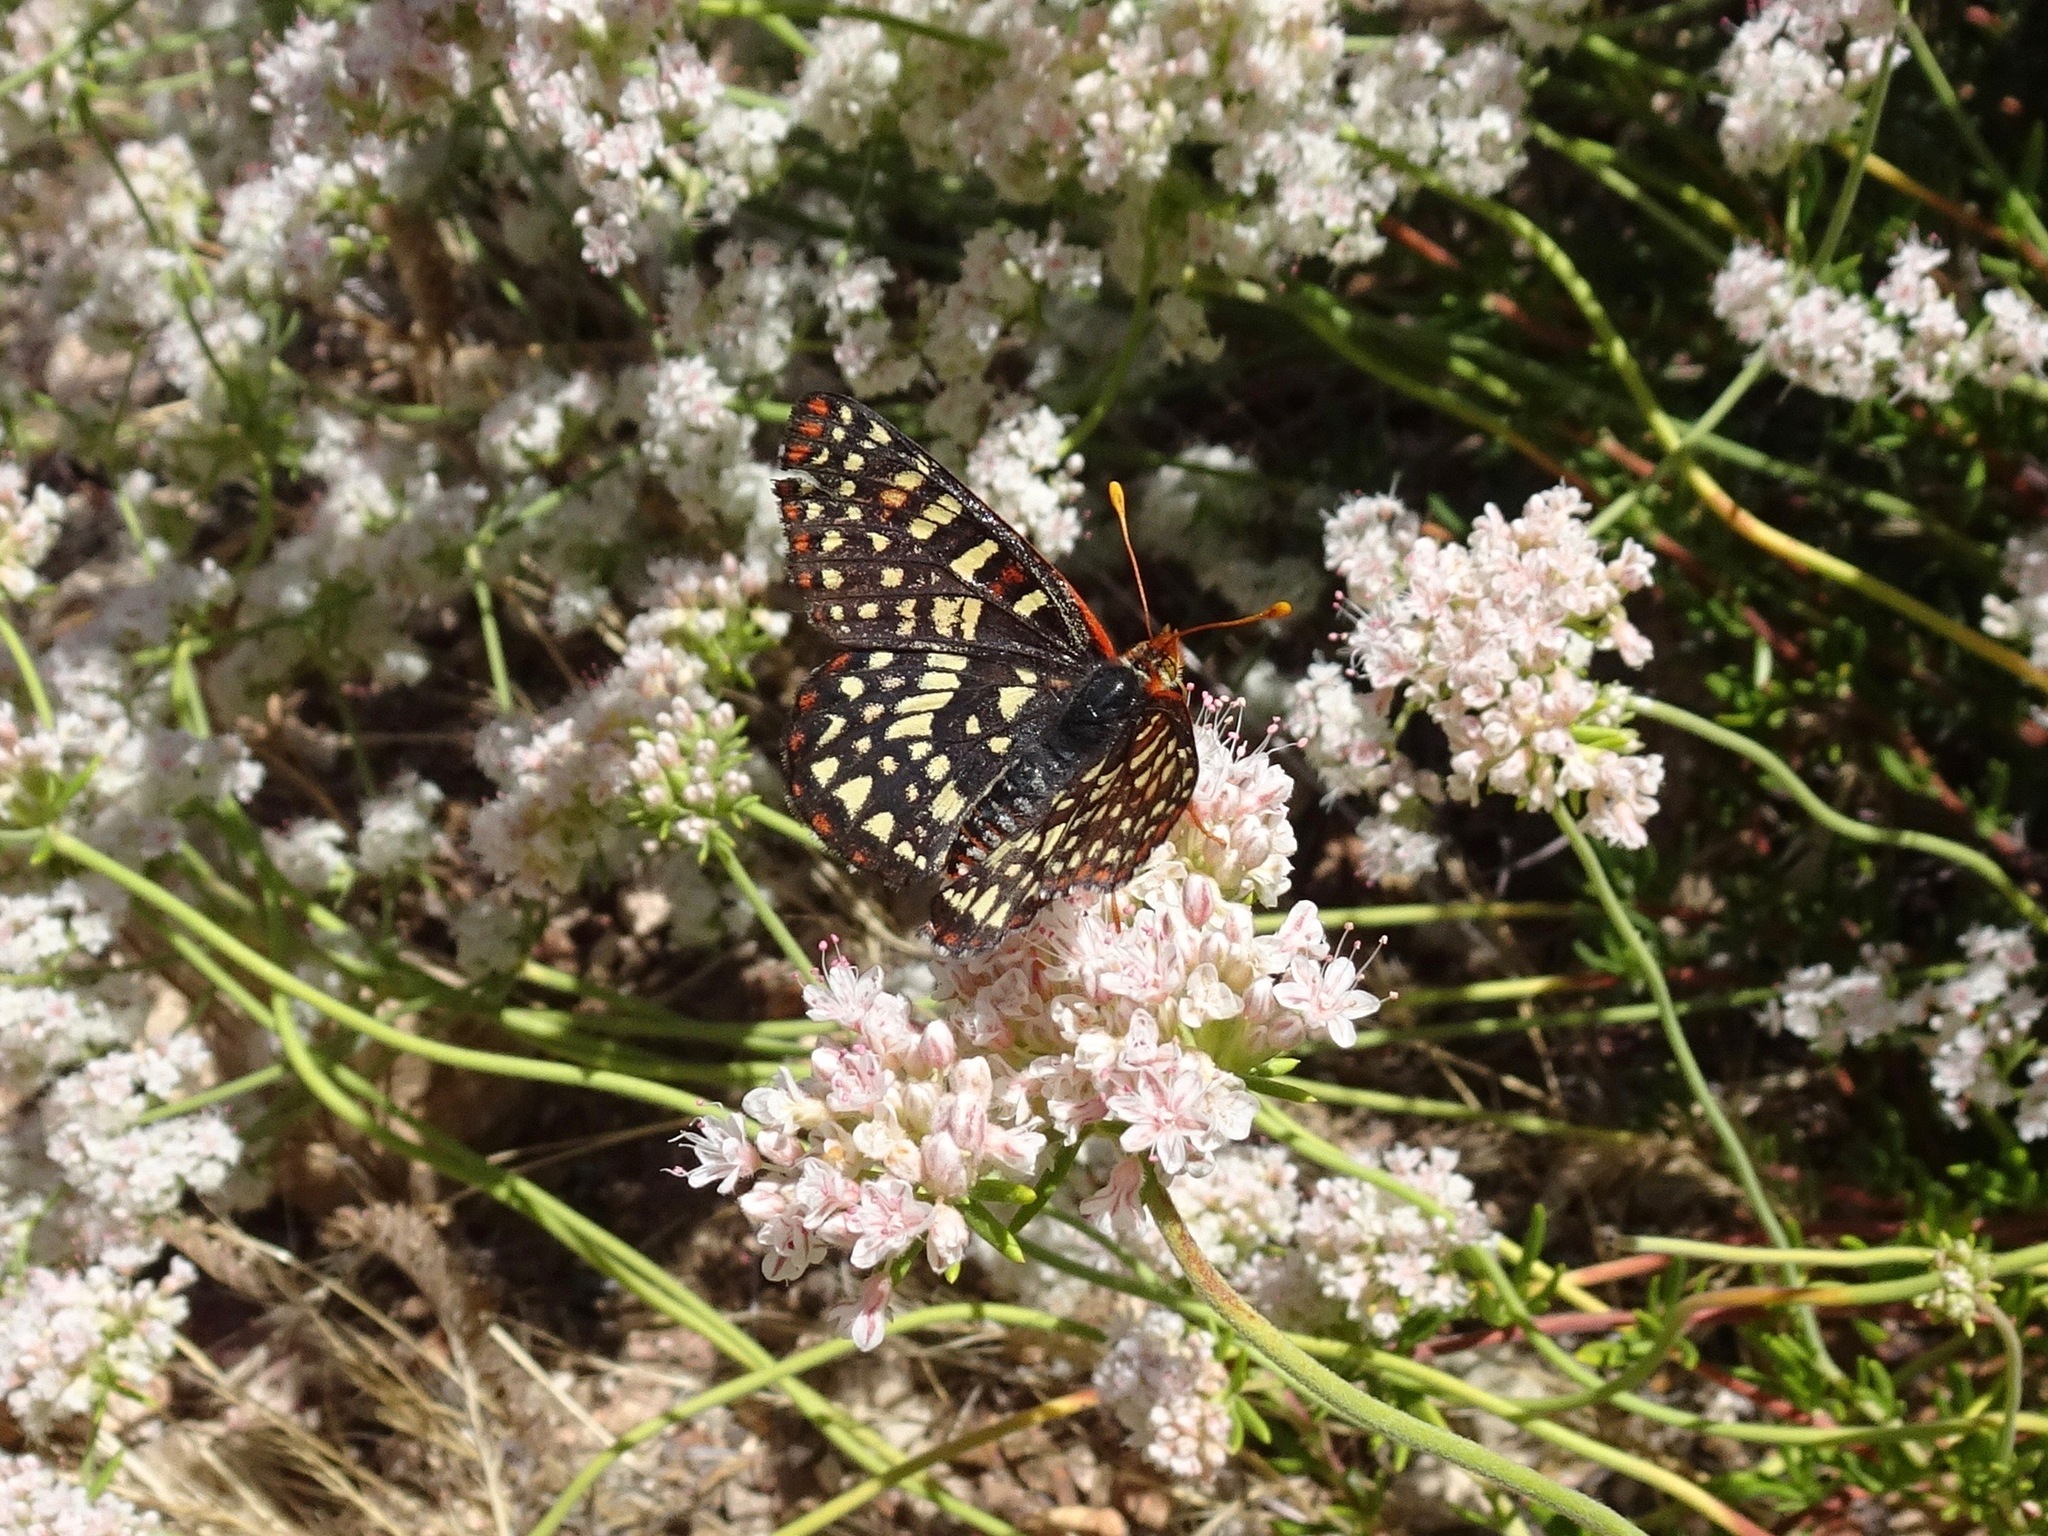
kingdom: Animalia
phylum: Arthropoda
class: Insecta
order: Lepidoptera
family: Nymphalidae
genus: Occidryas
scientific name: Occidryas chalcedona
